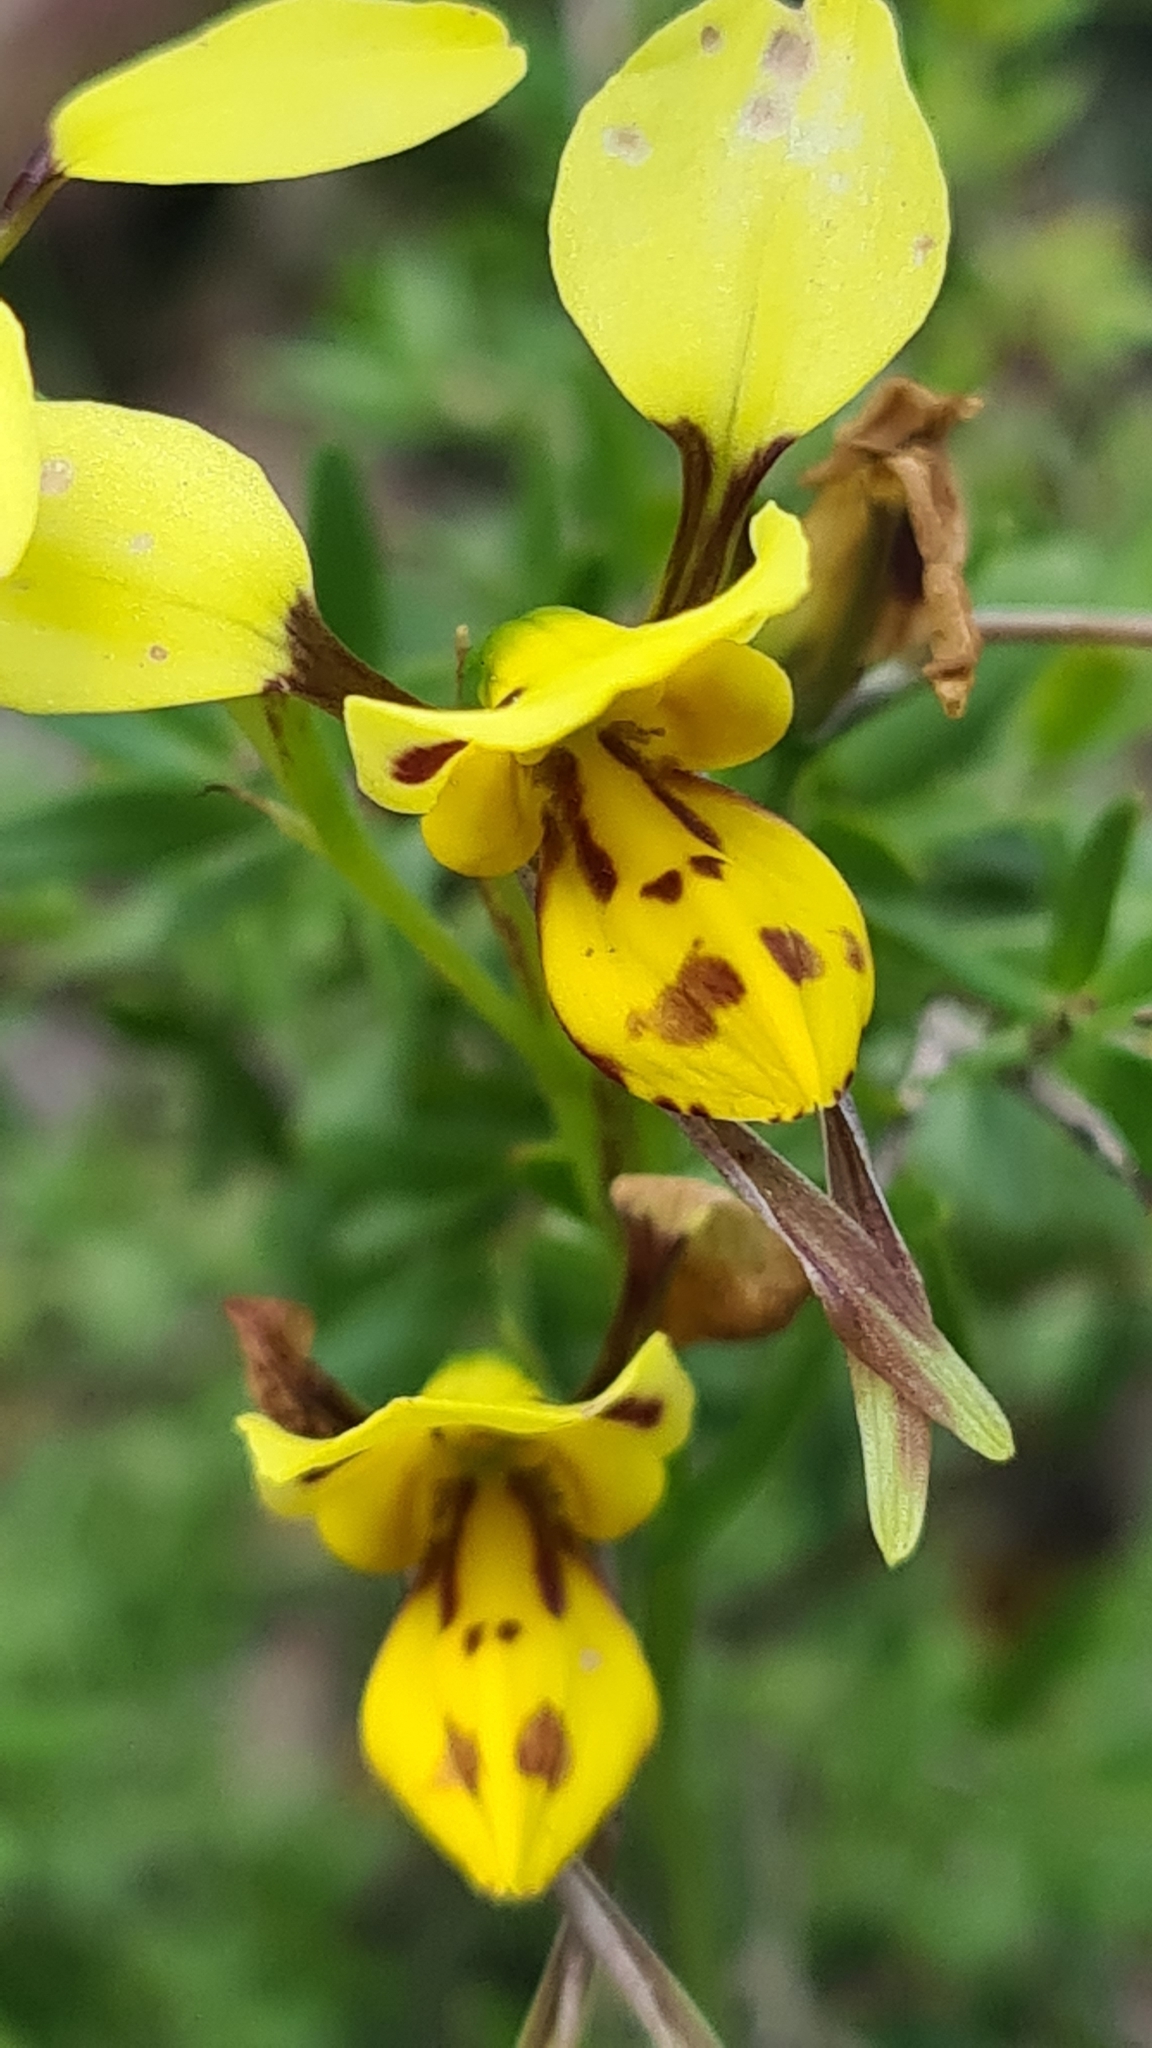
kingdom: Plantae
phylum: Tracheophyta
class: Liliopsida
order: Asparagales
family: Orchidaceae
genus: Diuris
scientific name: Diuris sulphurea
